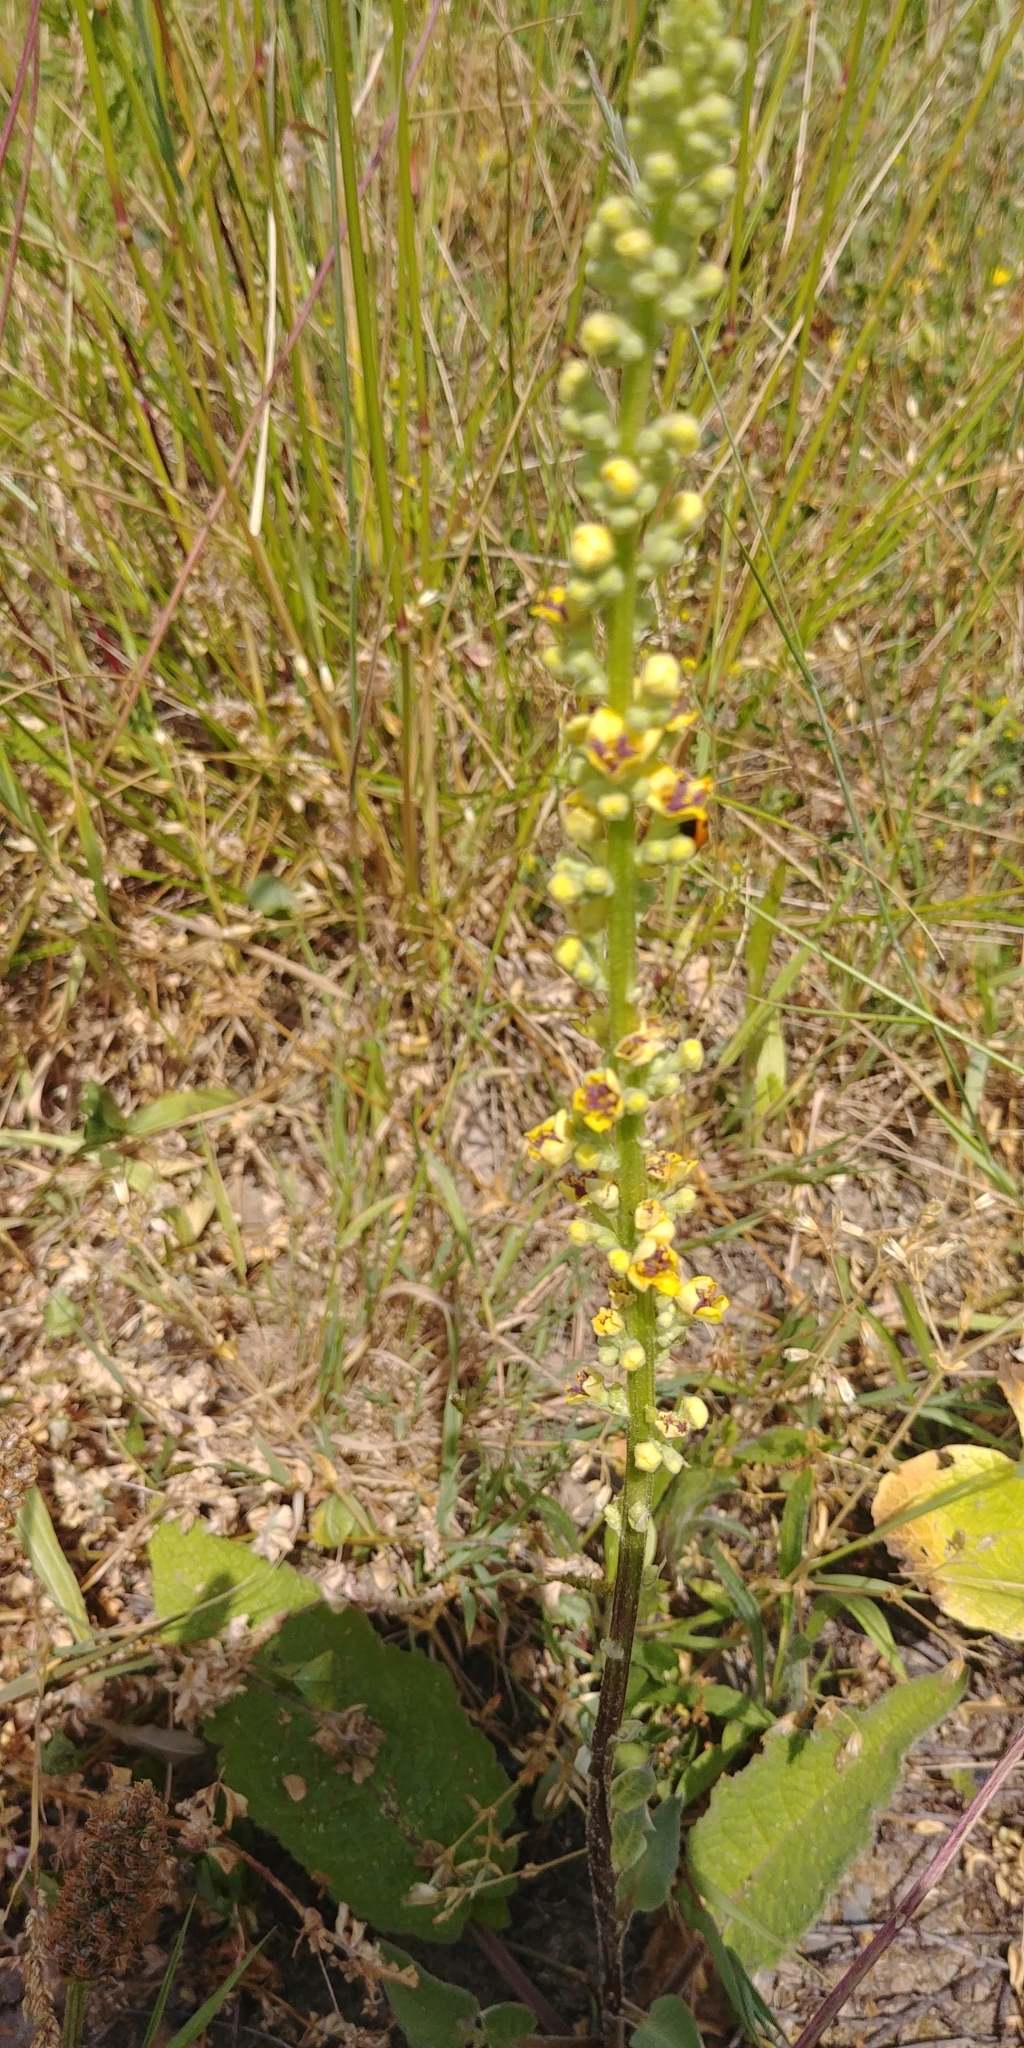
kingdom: Plantae
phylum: Tracheophyta
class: Magnoliopsida
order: Lamiales
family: Scrophulariaceae
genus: Verbascum
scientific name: Verbascum nigrum
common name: Dark mullein
